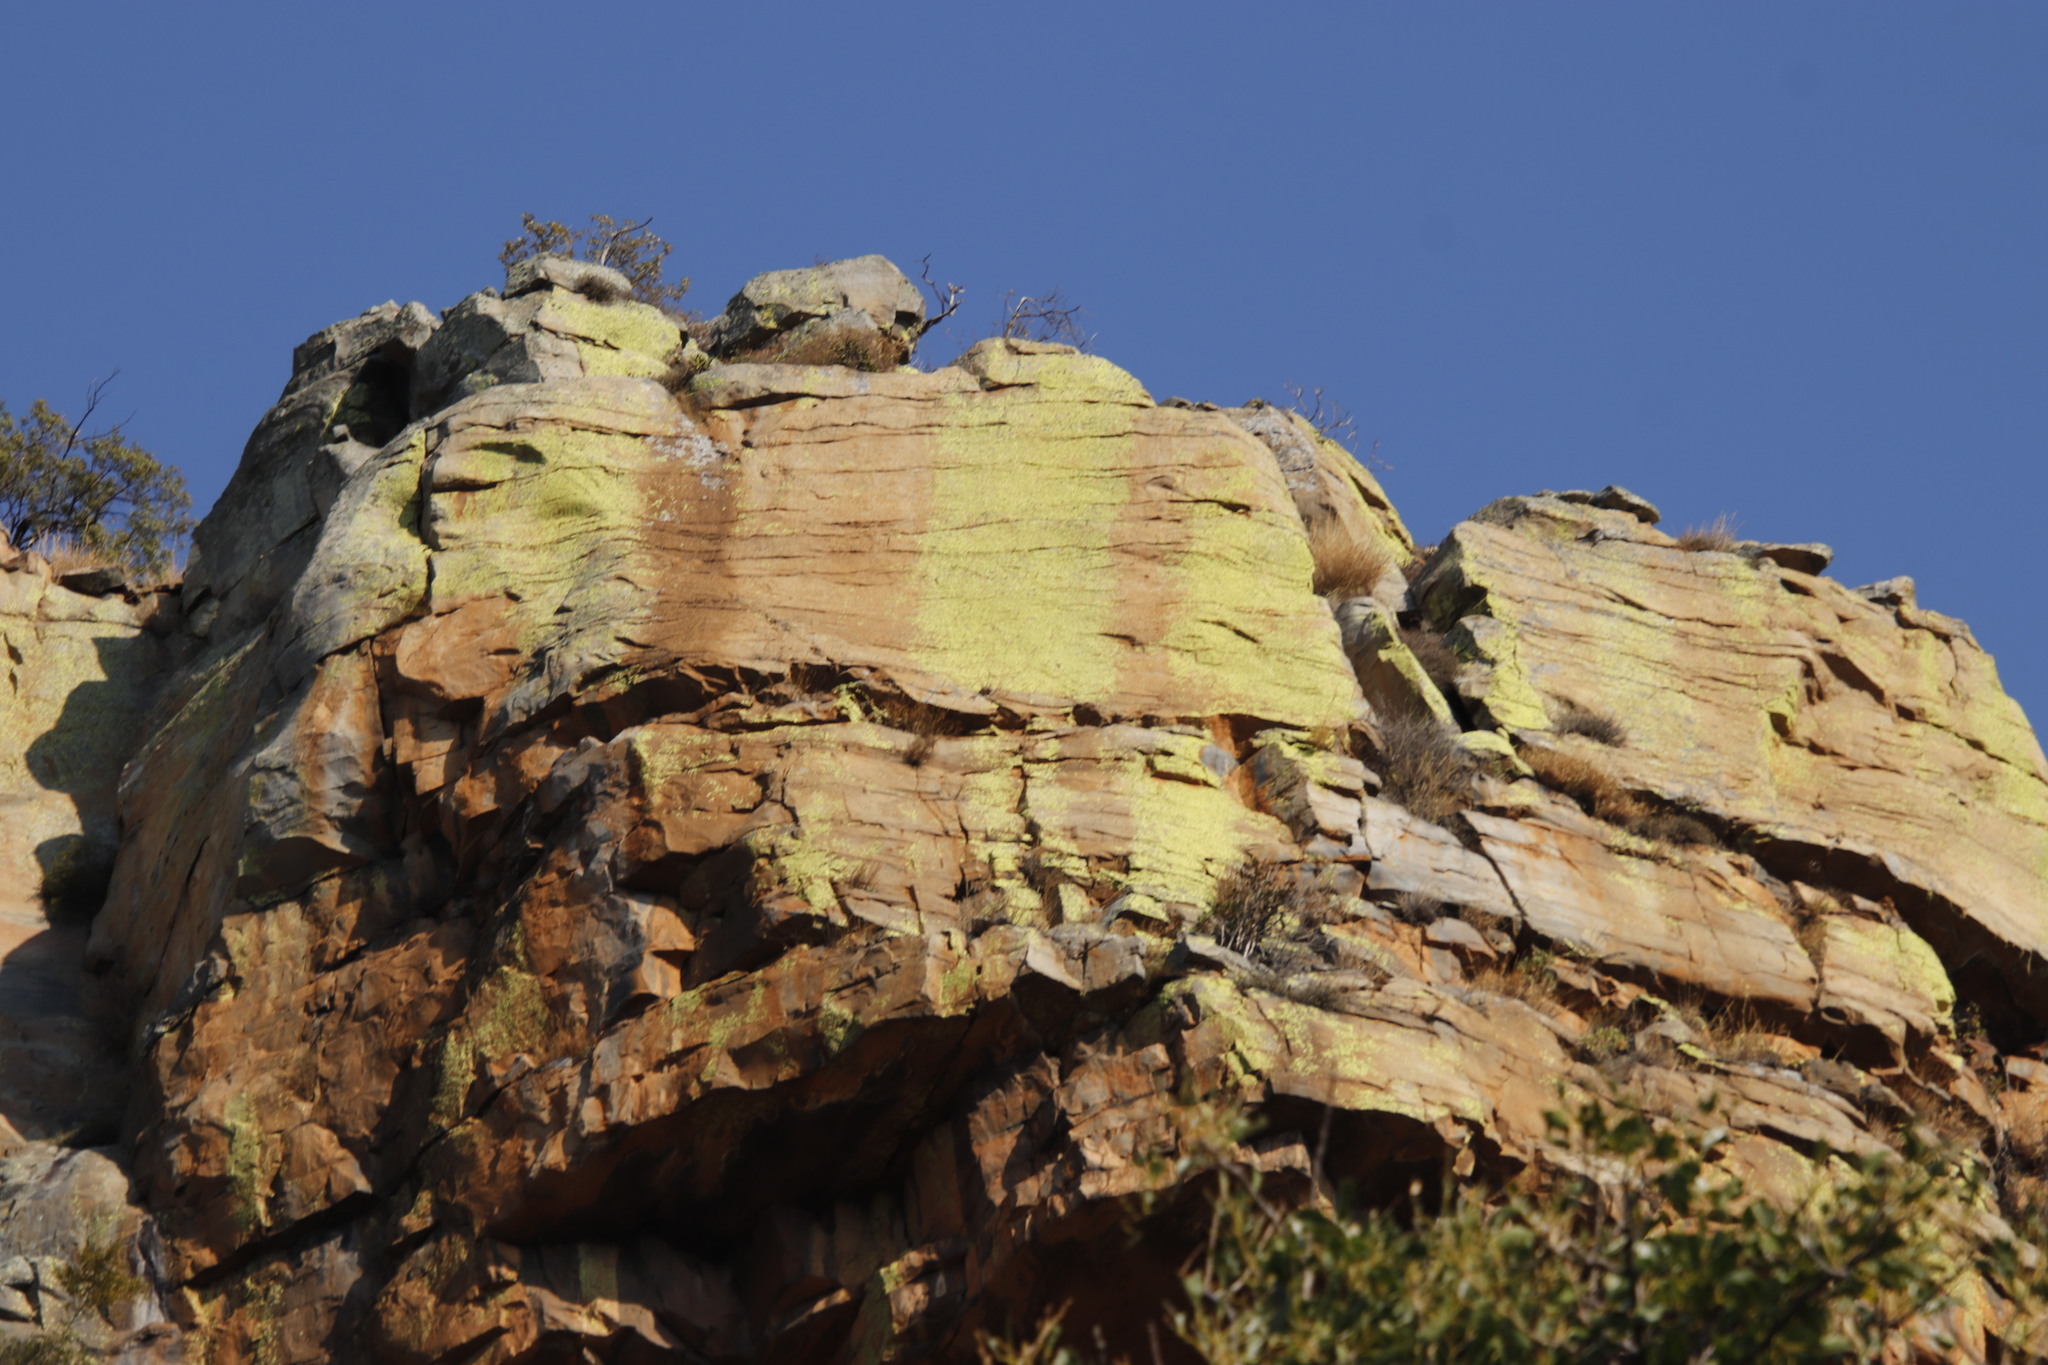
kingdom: Fungi
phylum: Ascomycota
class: Lecanoromycetes
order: Caliciales
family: Caliciaceae
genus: Dermatiscum
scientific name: Dermatiscum thunbergii
